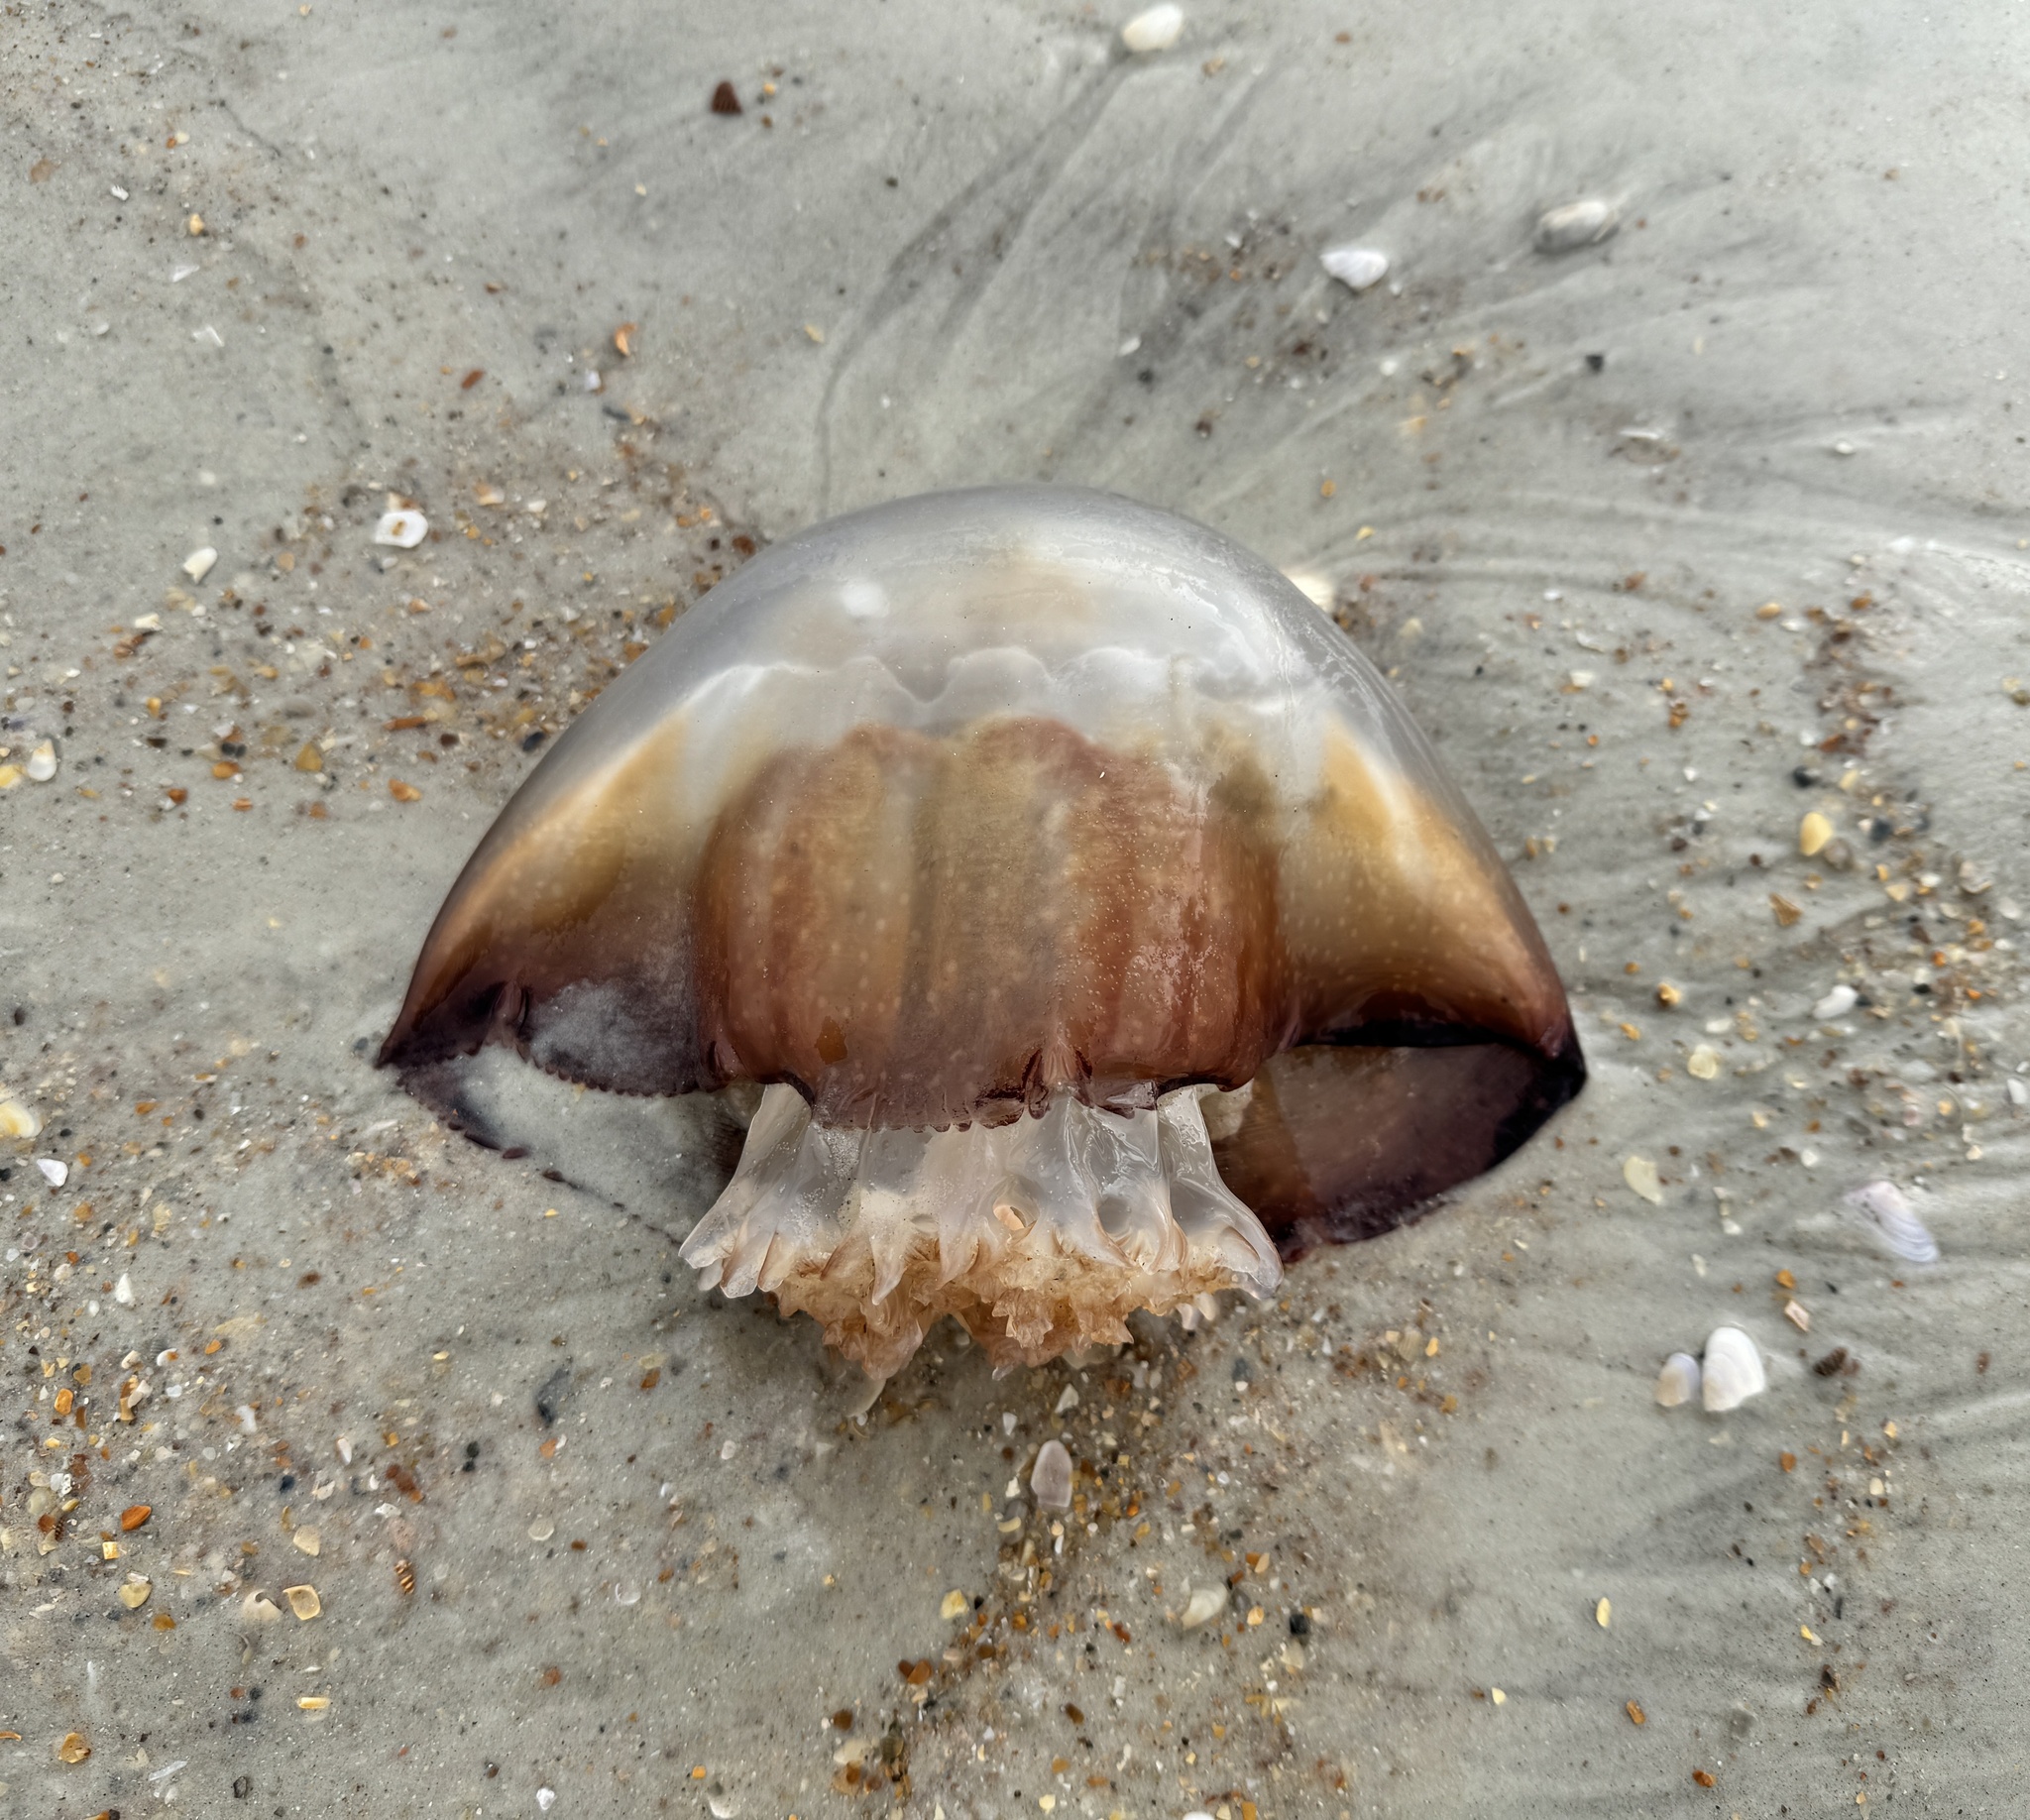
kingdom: Animalia
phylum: Cnidaria
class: Scyphozoa
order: Rhizostomeae
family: Stomolophidae
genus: Stomolophus
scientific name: Stomolophus meleagris
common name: Cabbagehead
